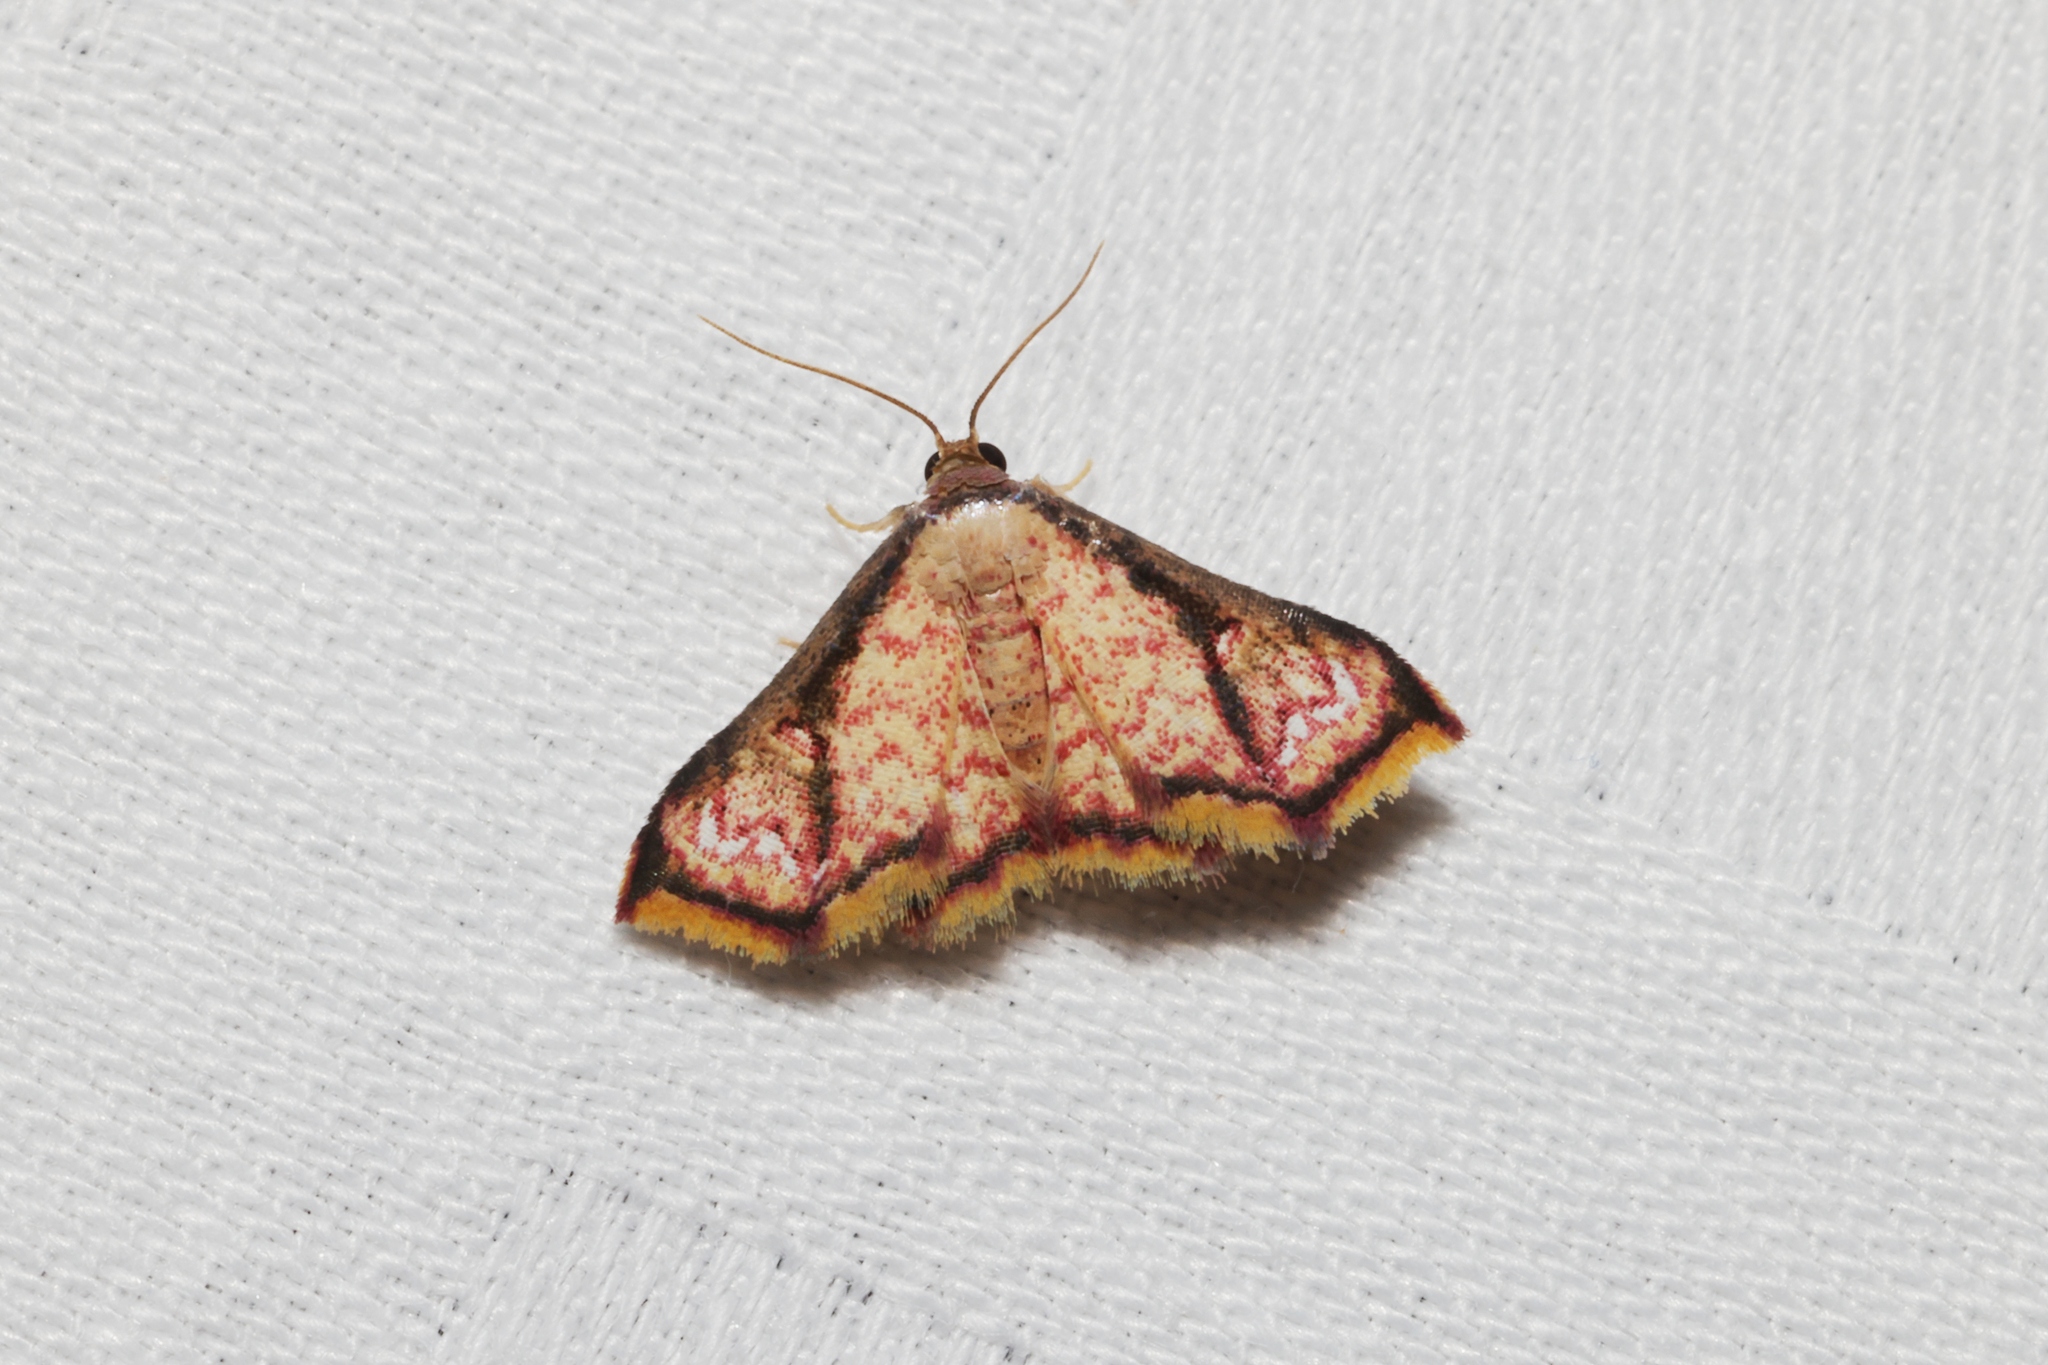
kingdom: Animalia
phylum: Arthropoda
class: Insecta
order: Lepidoptera
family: Noctuidae
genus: Enispa
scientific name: Enispa elataria
